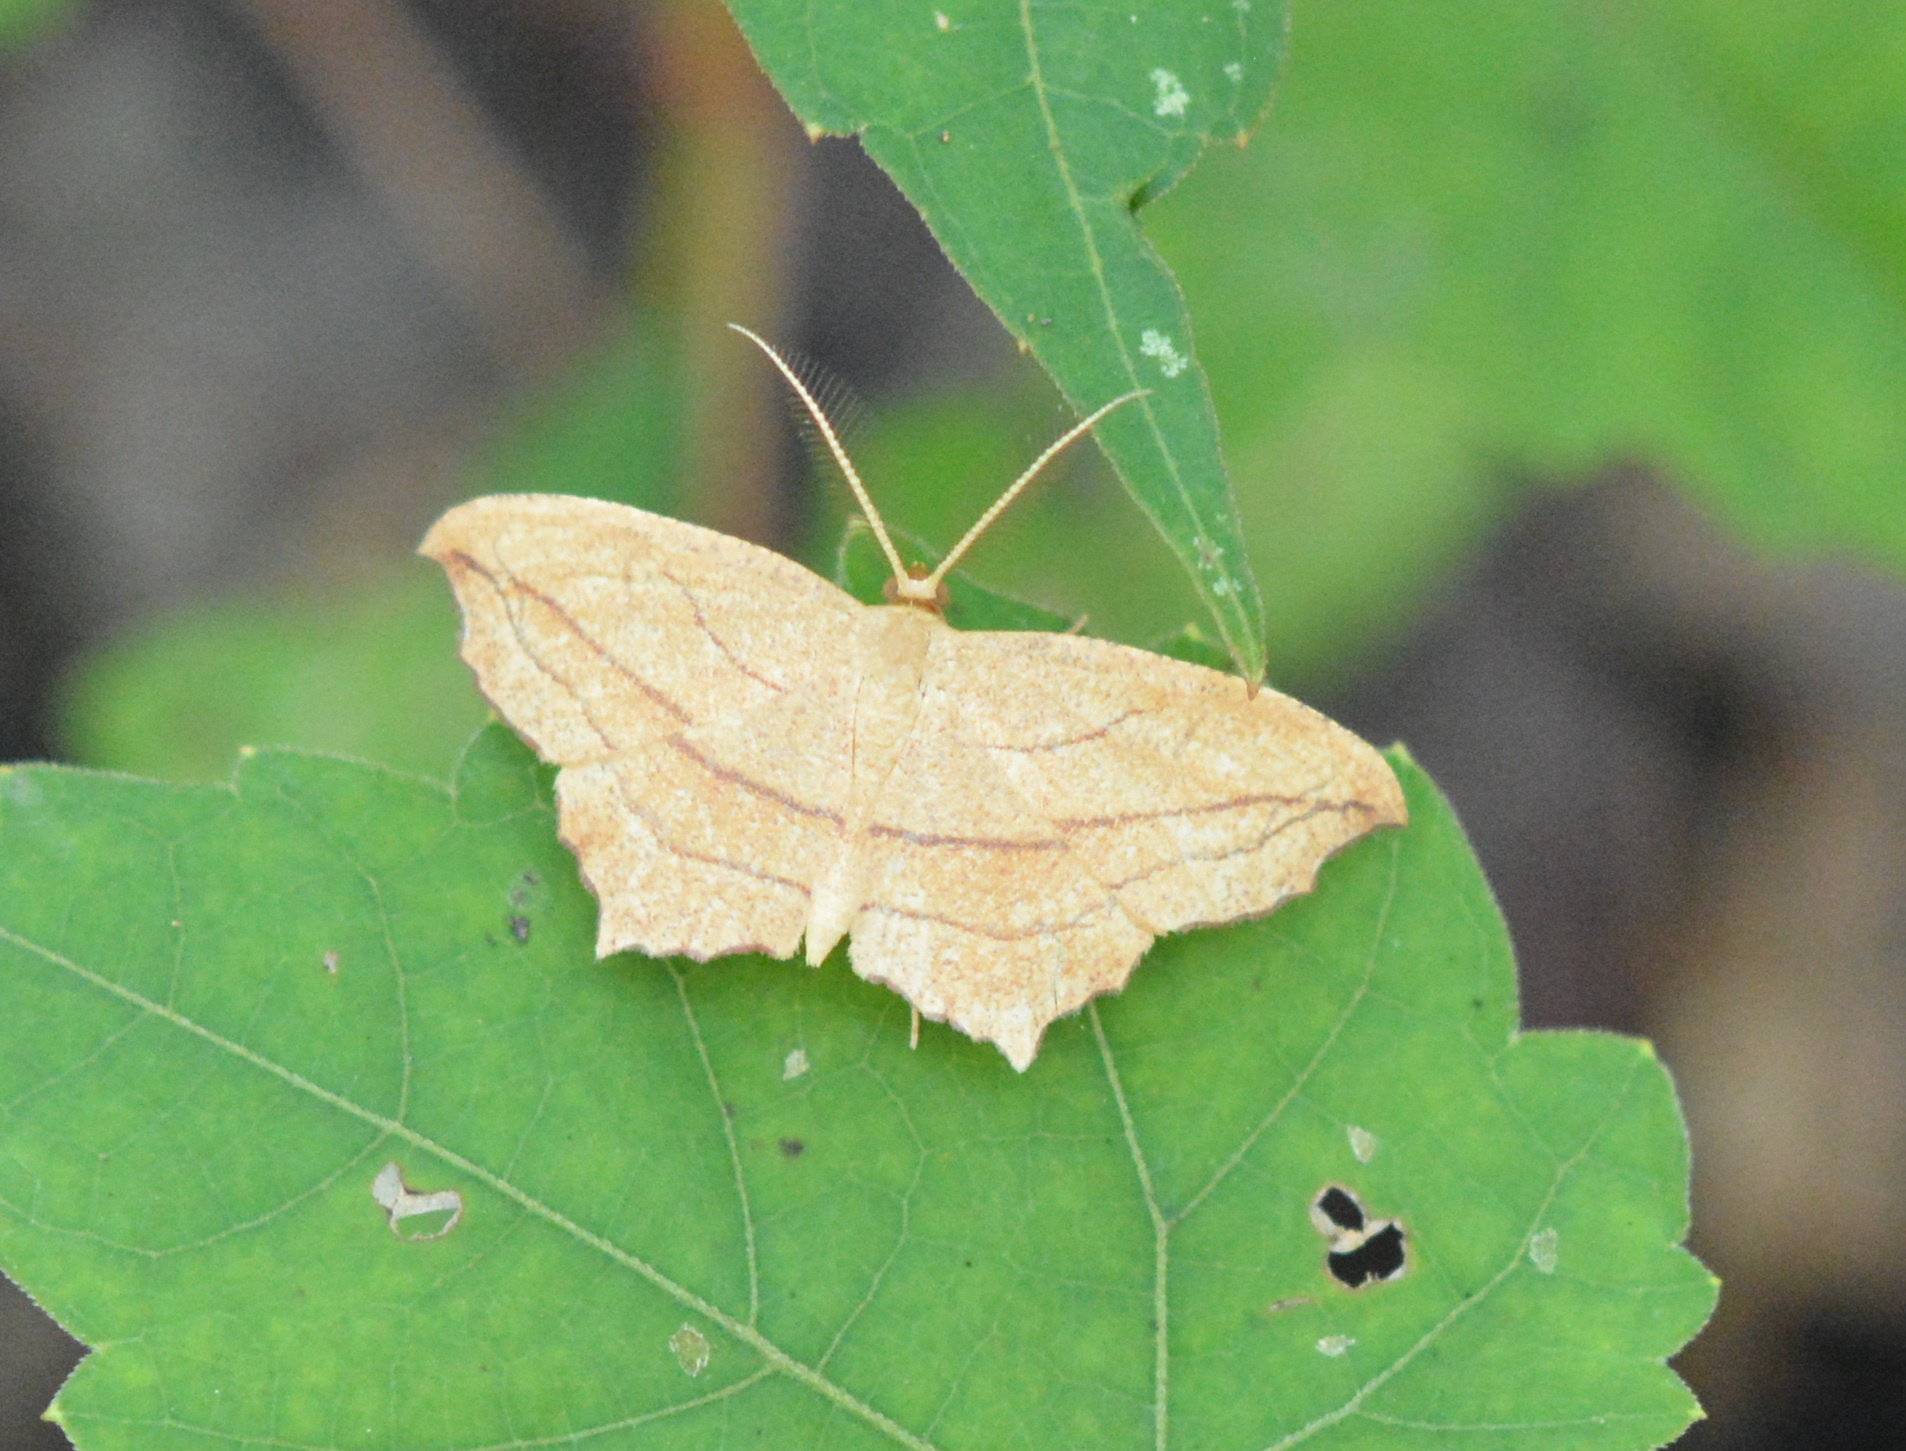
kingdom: Animalia
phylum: Arthropoda
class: Insecta
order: Lepidoptera
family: Geometridae
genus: Timandra
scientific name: Timandra amaturaria
